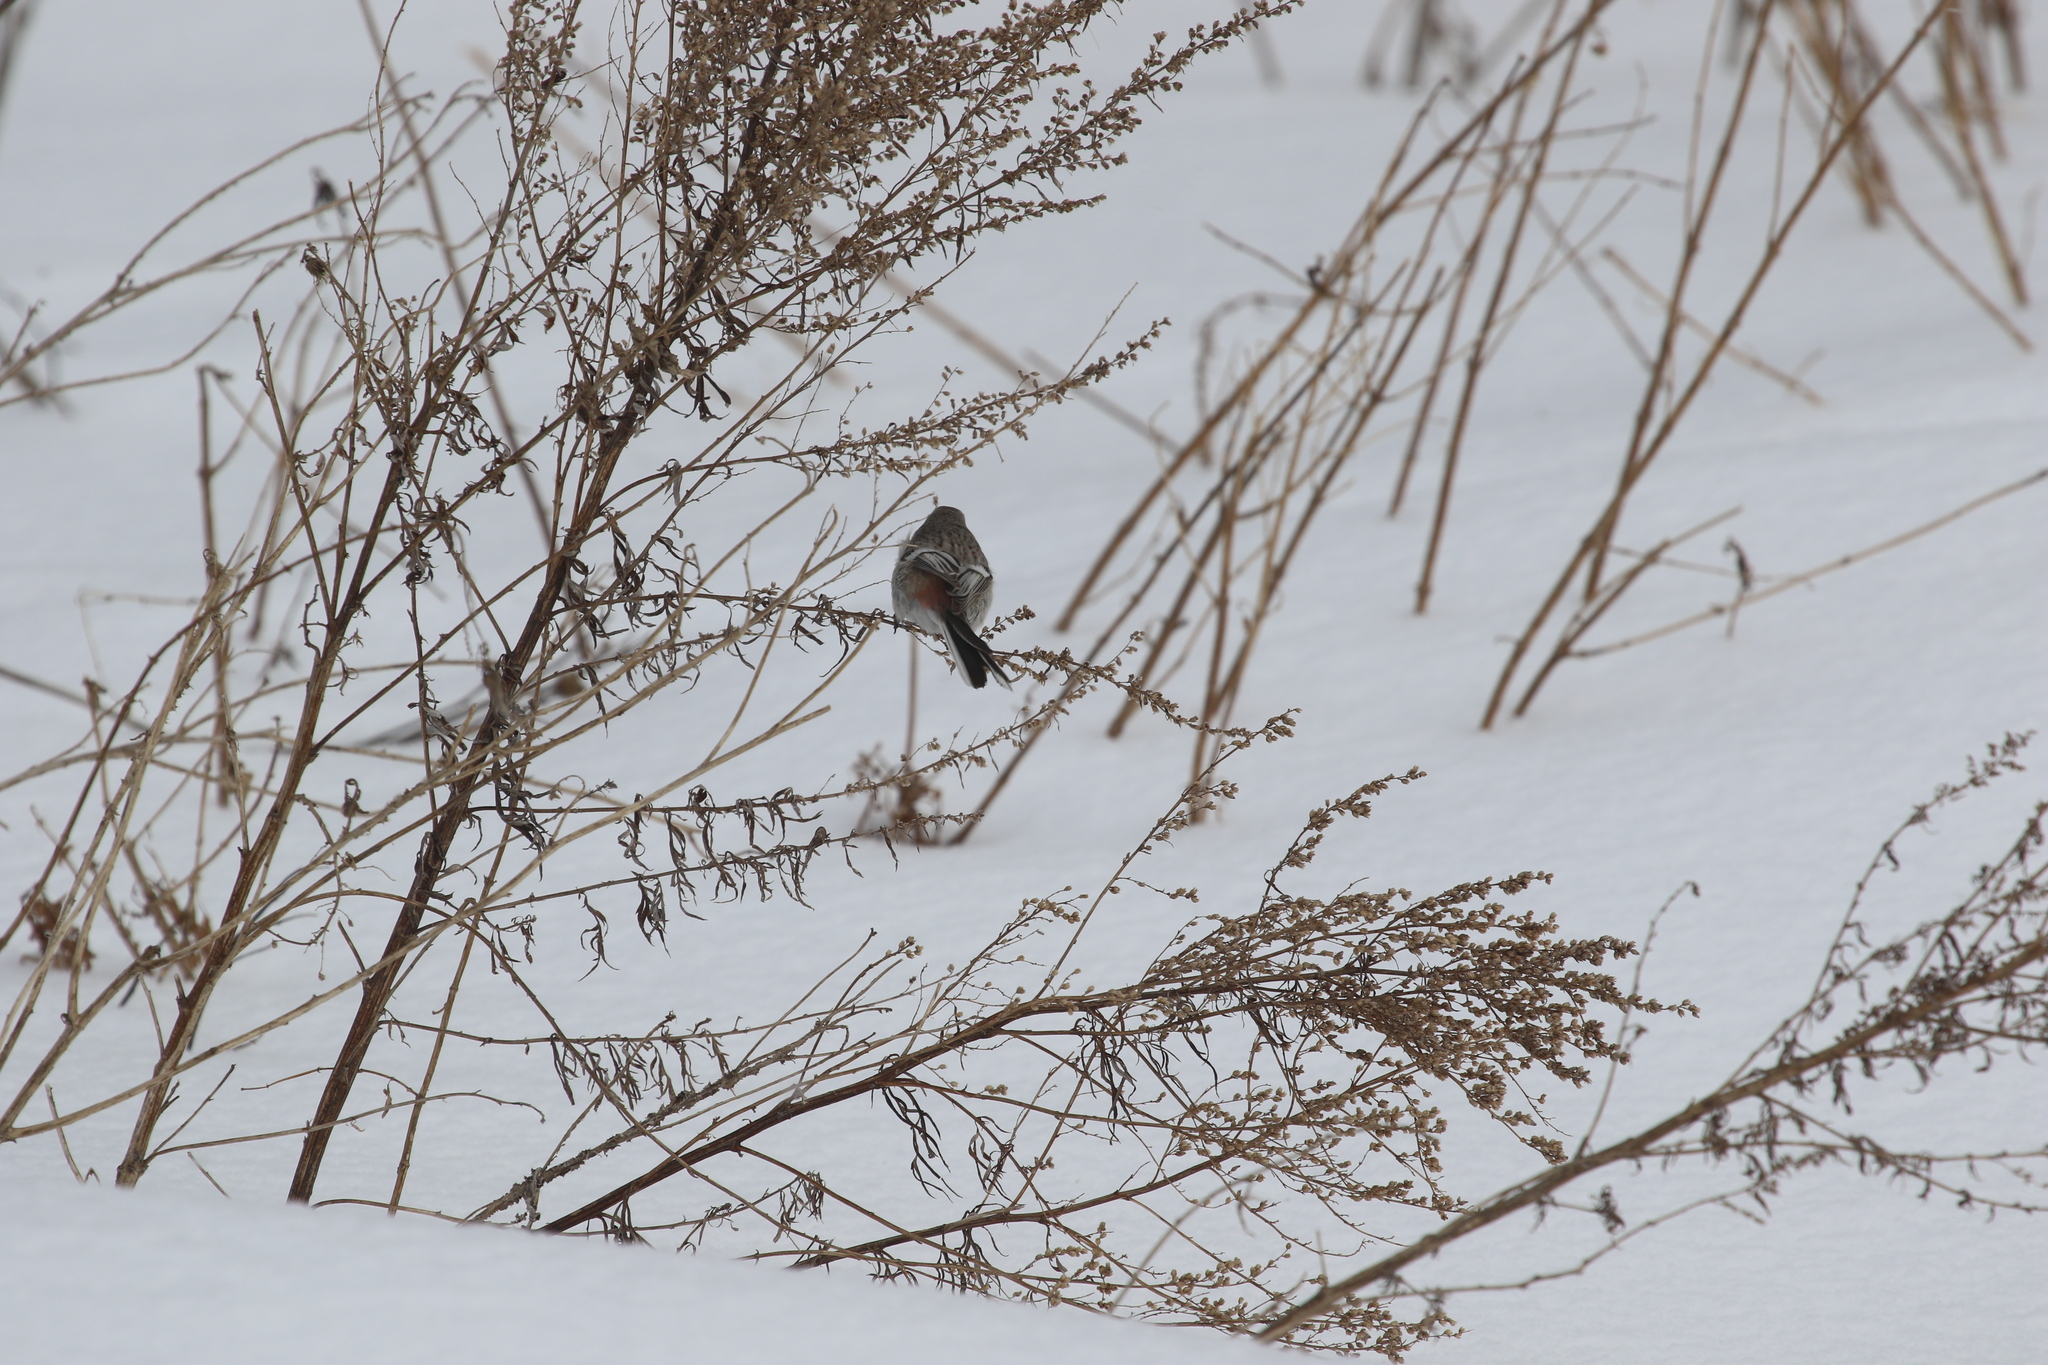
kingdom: Animalia
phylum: Chordata
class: Aves
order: Passeriformes
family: Fringillidae
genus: Carpodacus
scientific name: Carpodacus sibiricus
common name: Long-tailed rosefinch
